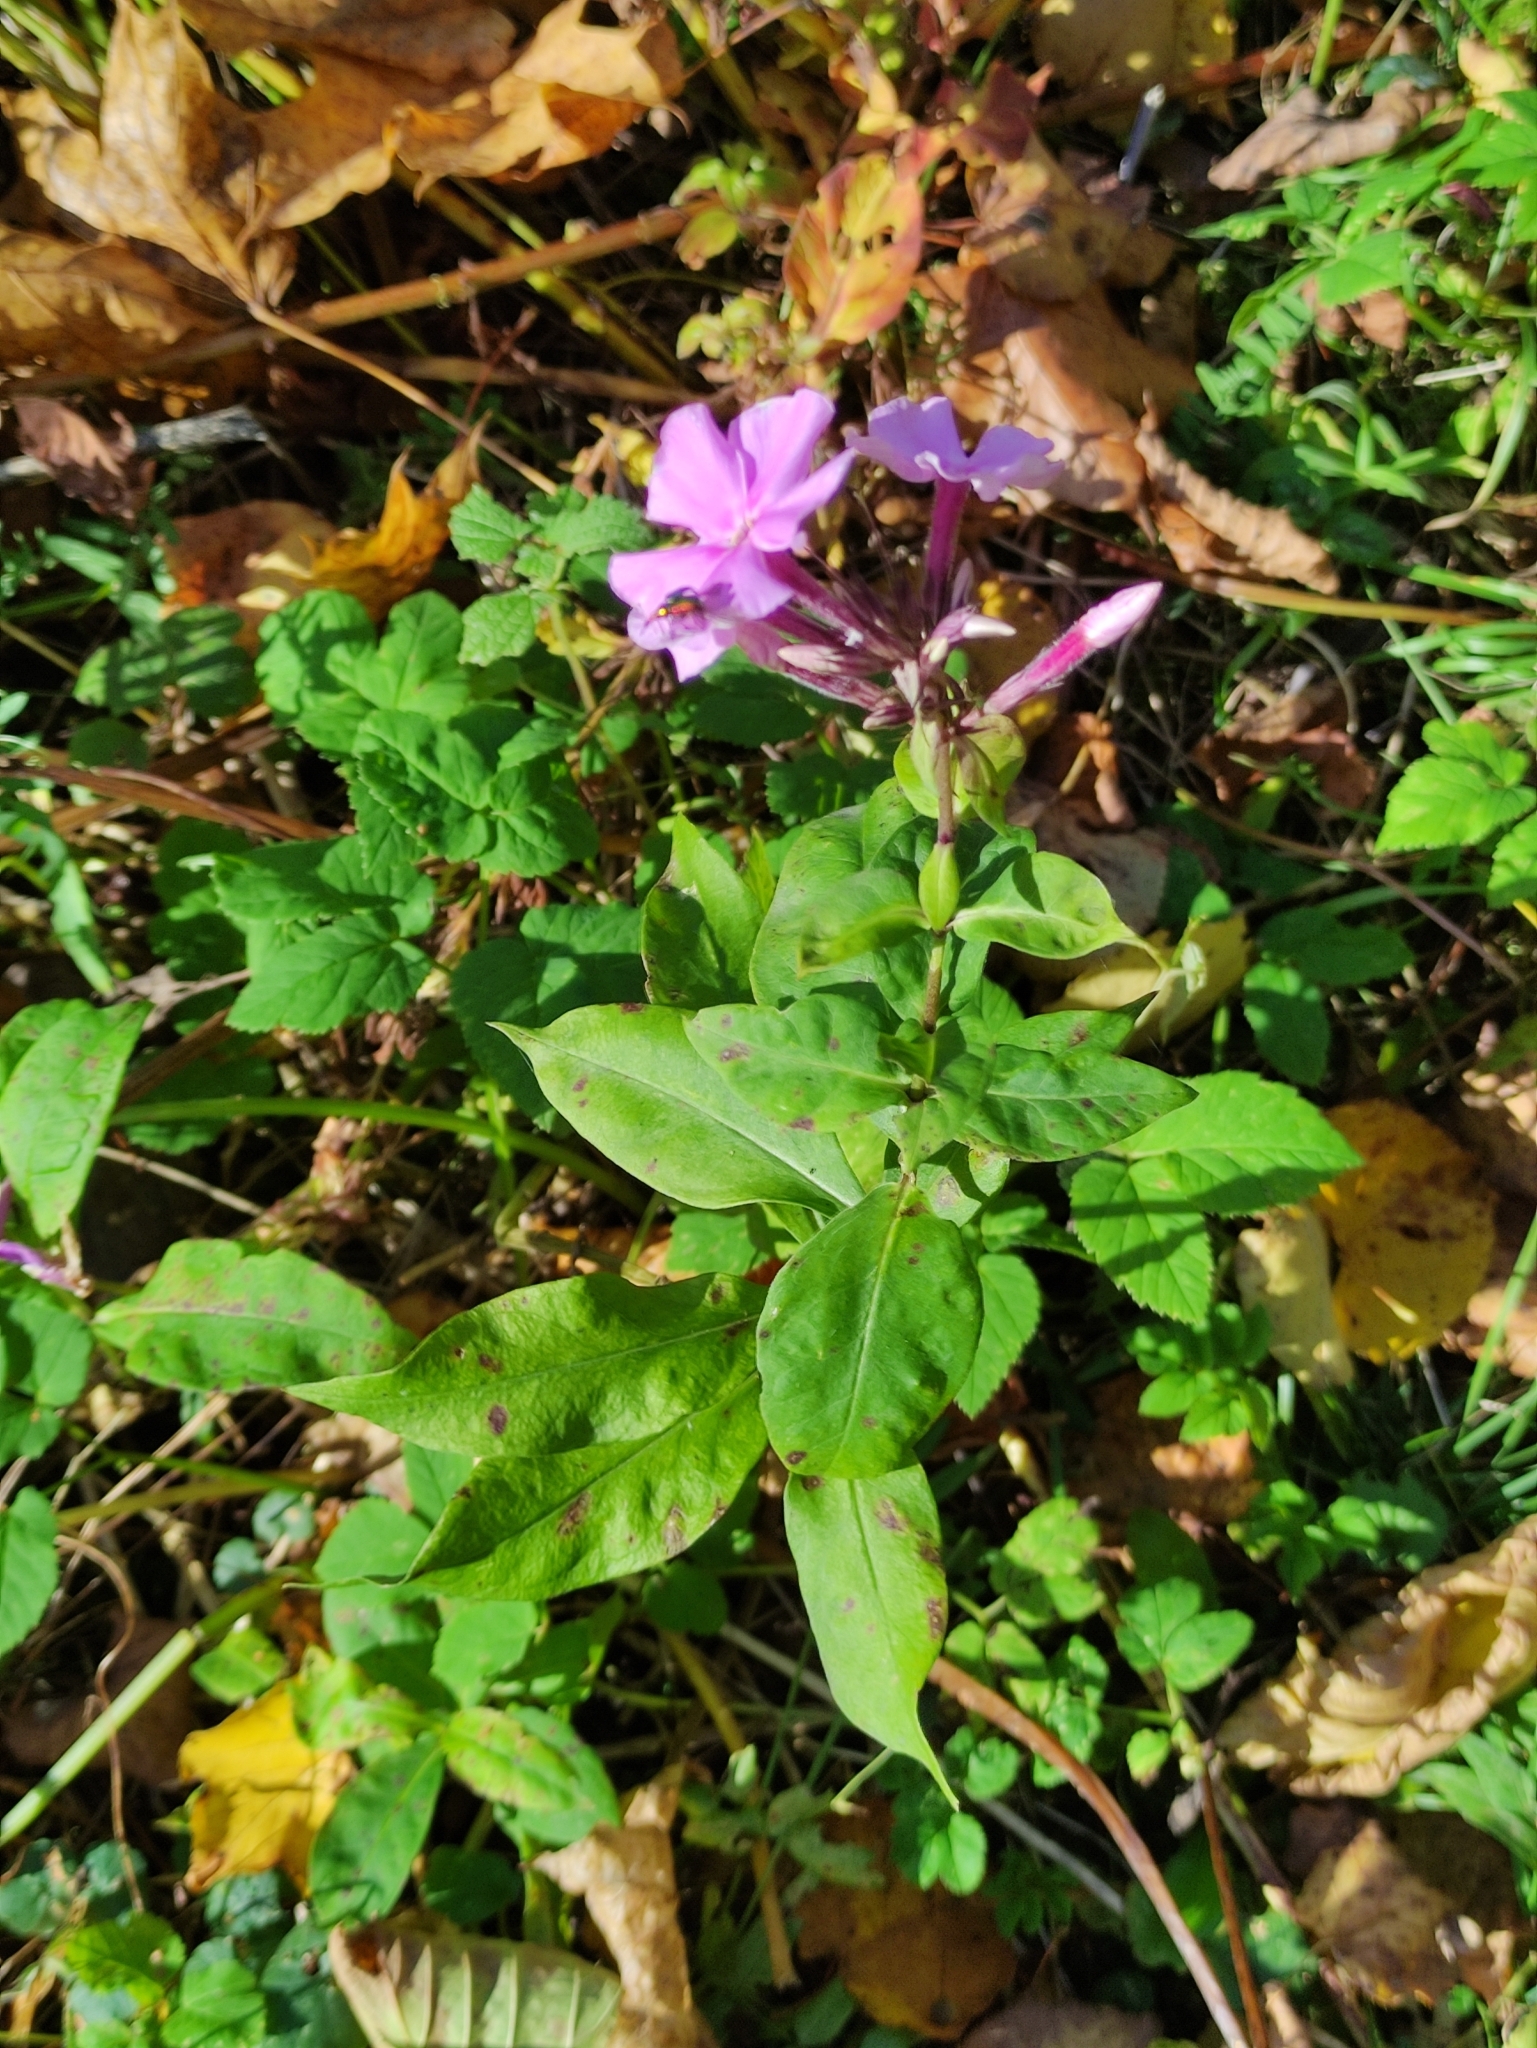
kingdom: Plantae
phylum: Tracheophyta
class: Magnoliopsida
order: Ericales
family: Polemoniaceae
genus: Phlox
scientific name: Phlox paniculata
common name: Fall phlox
